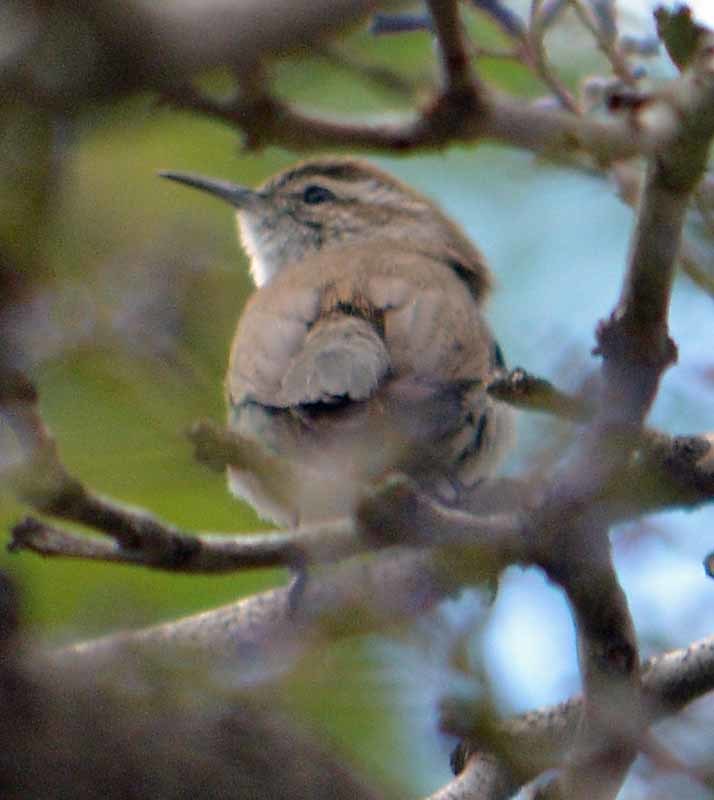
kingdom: Animalia
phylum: Chordata
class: Aves
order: Passeriformes
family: Troglodytidae
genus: Thryomanes
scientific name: Thryomanes bewickii
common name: Bewick's wren
